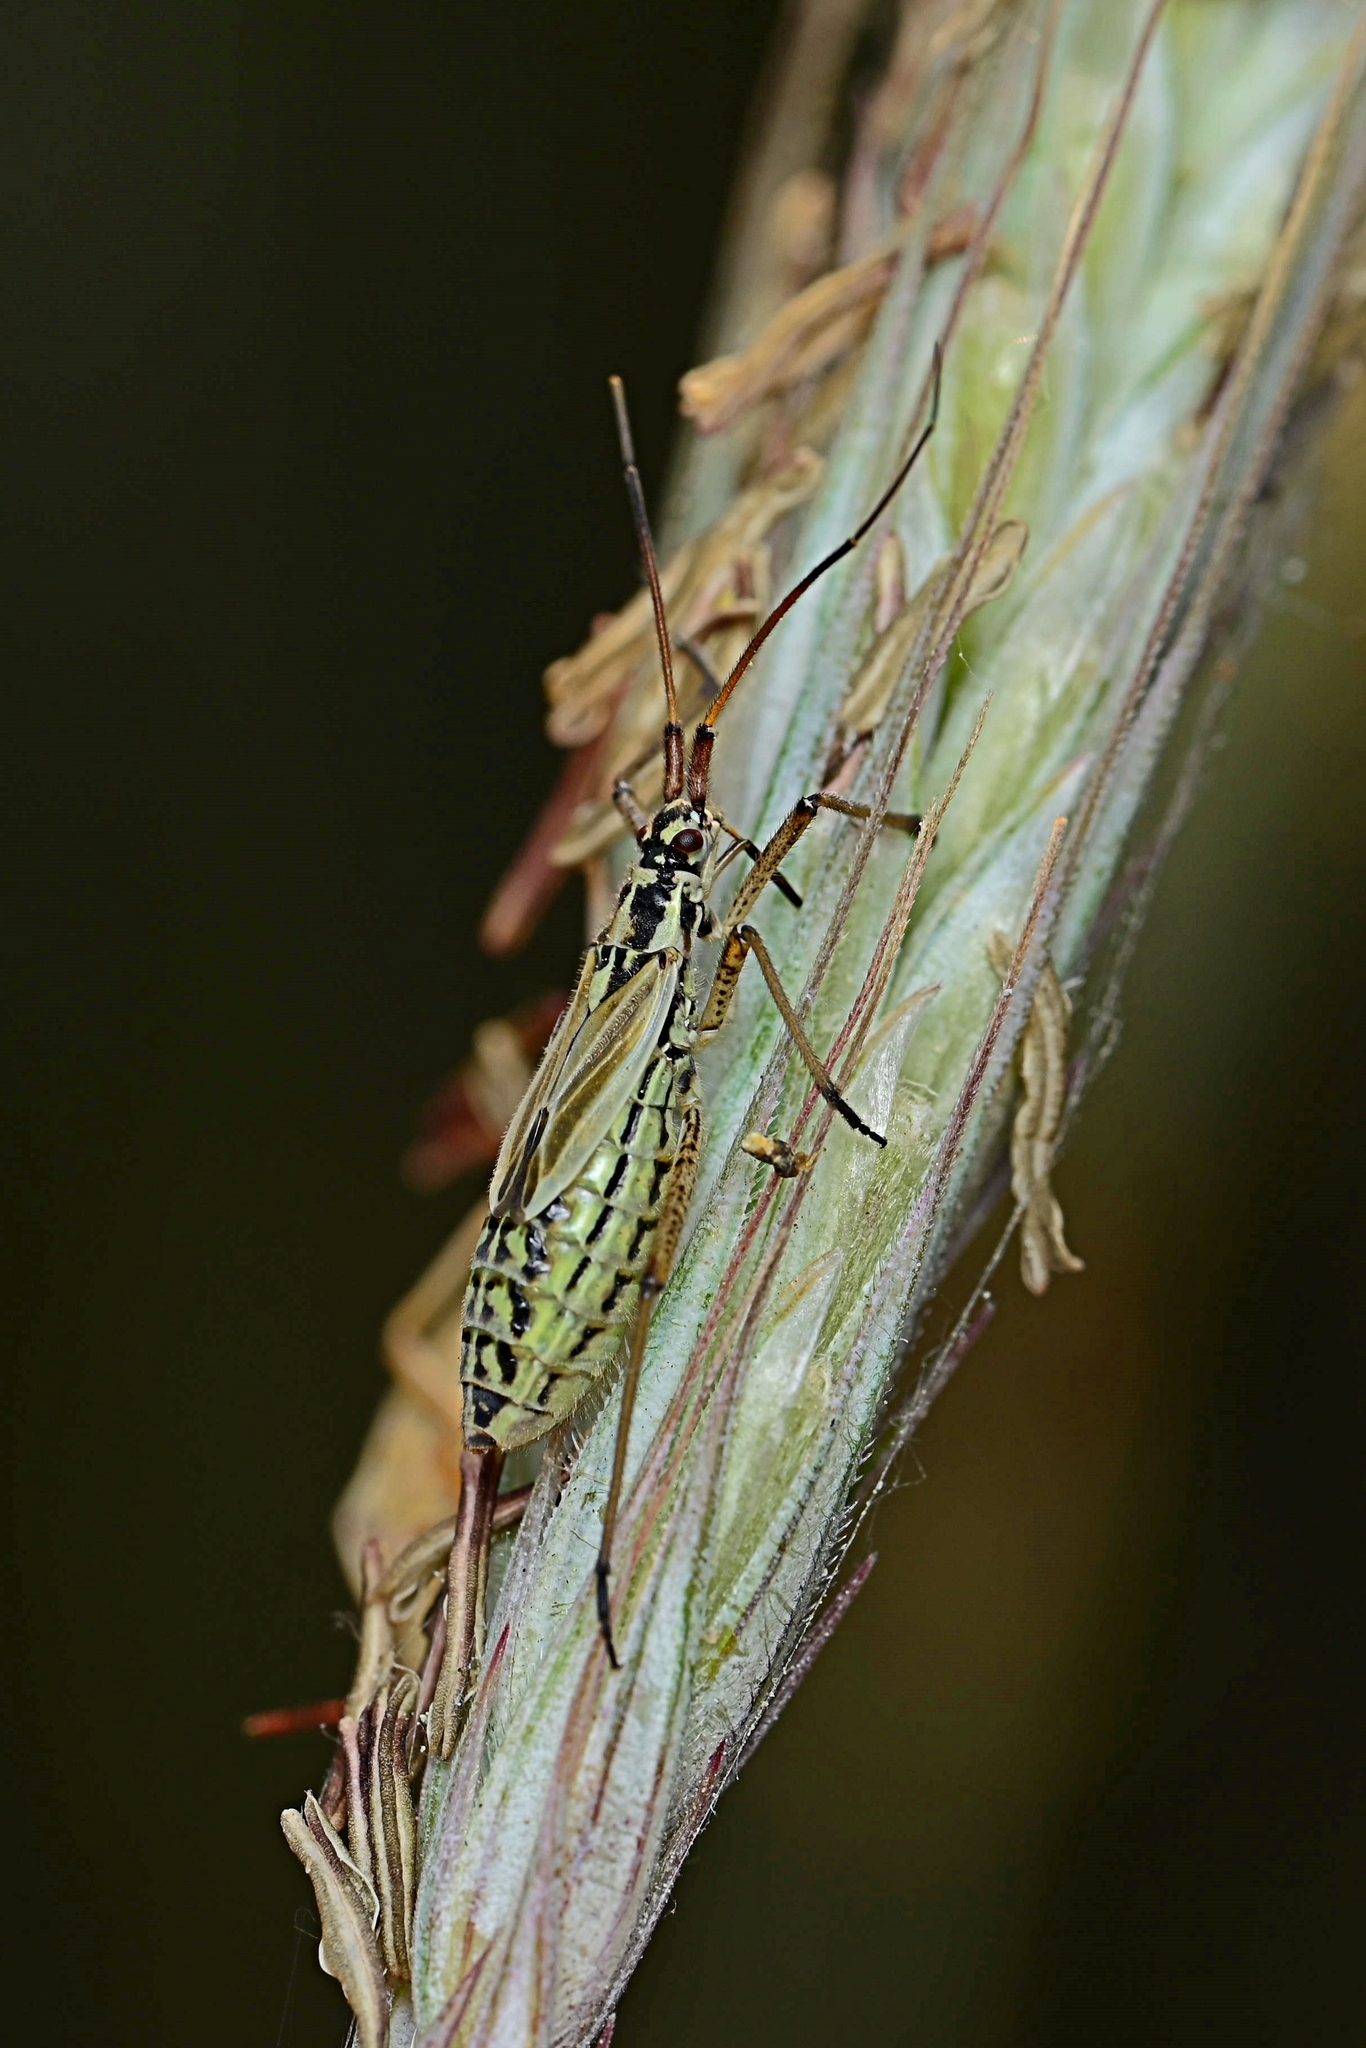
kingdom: Animalia
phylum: Arthropoda
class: Insecta
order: Hemiptera
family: Miridae
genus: Leptopterna
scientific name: Leptopterna dolabrata
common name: Meadow plant bug
